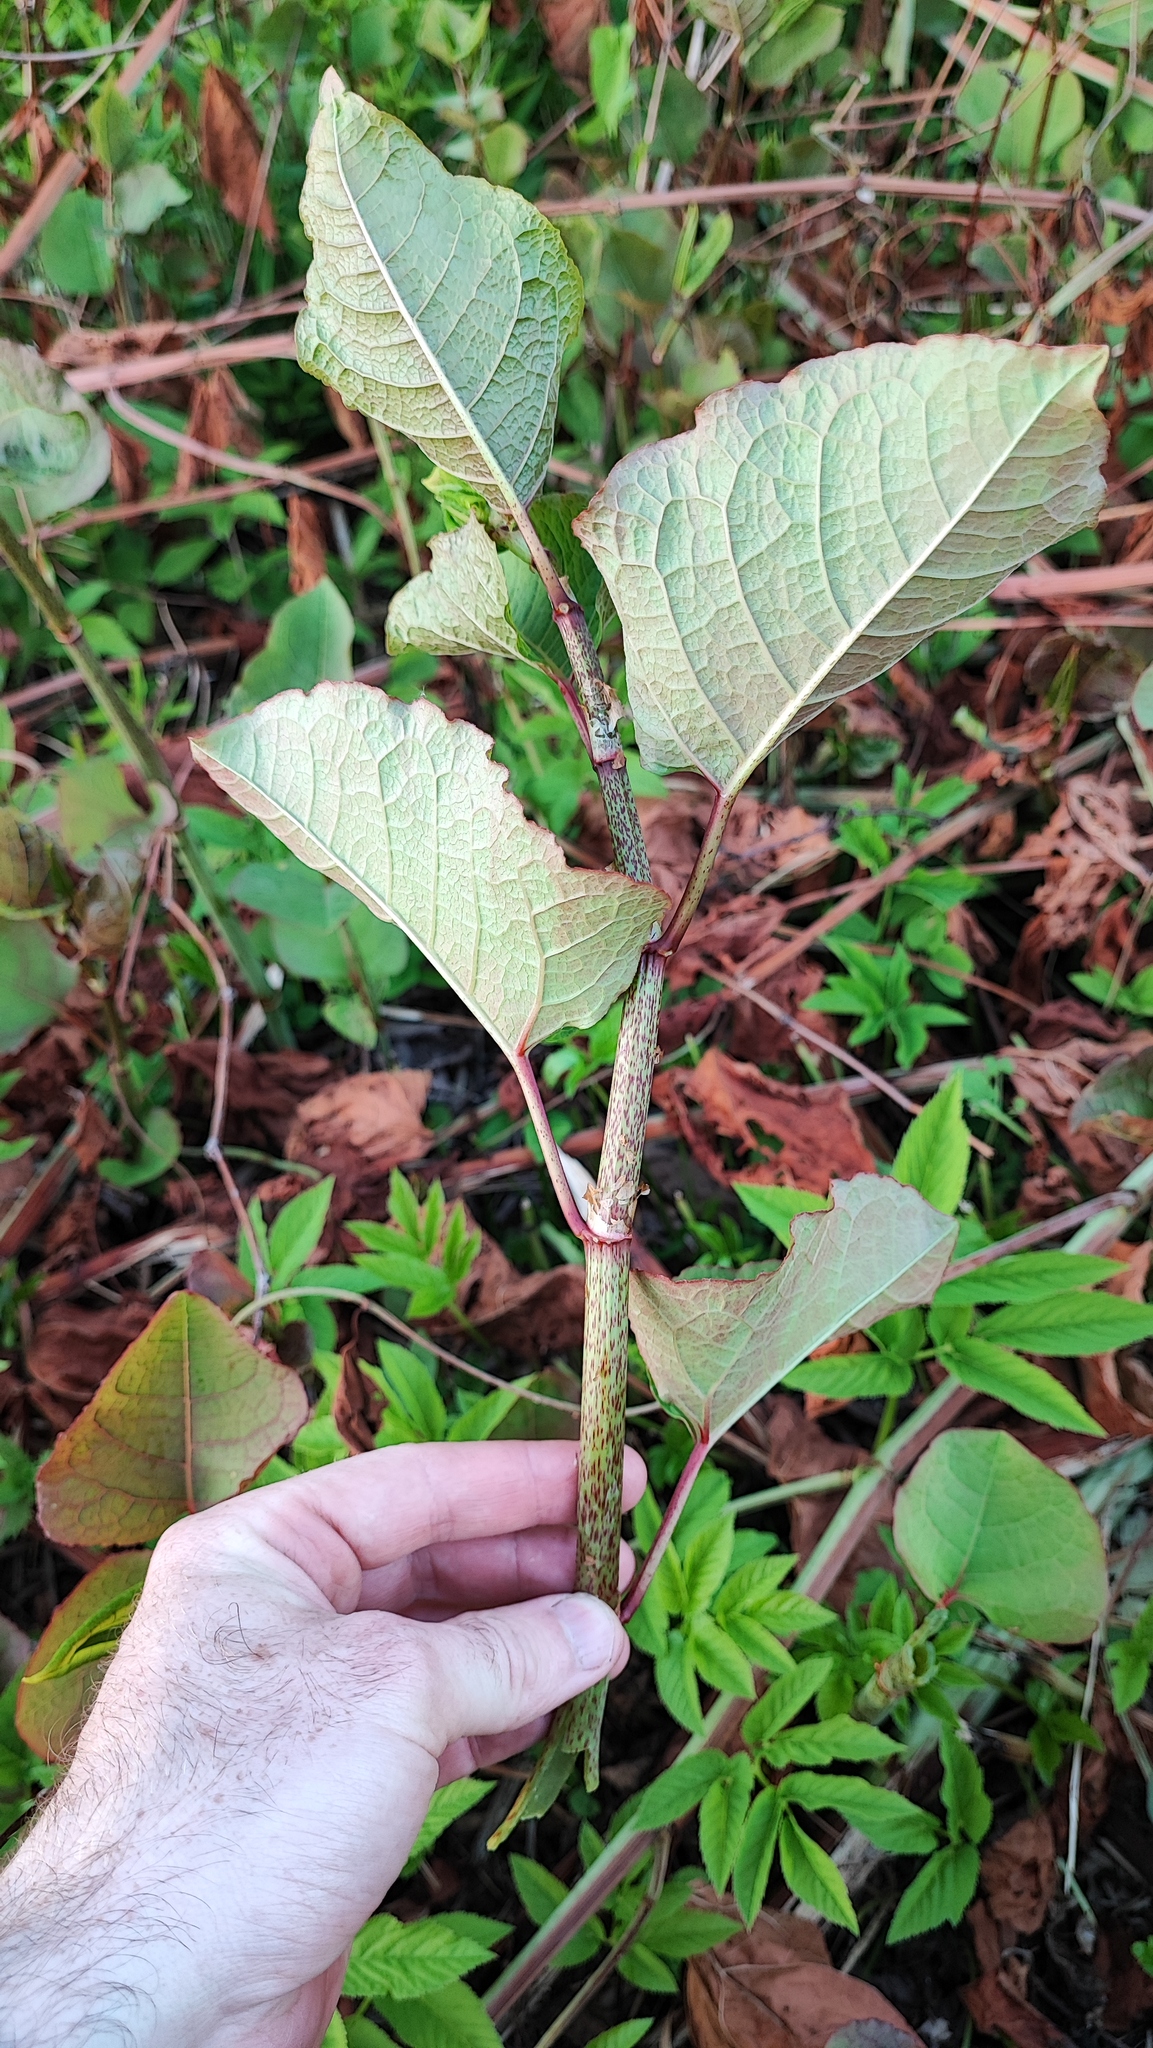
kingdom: Plantae
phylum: Tracheophyta
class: Magnoliopsida
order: Caryophyllales
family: Polygonaceae
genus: Reynoutria
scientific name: Reynoutria bohemica
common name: Bohemian knotweed
